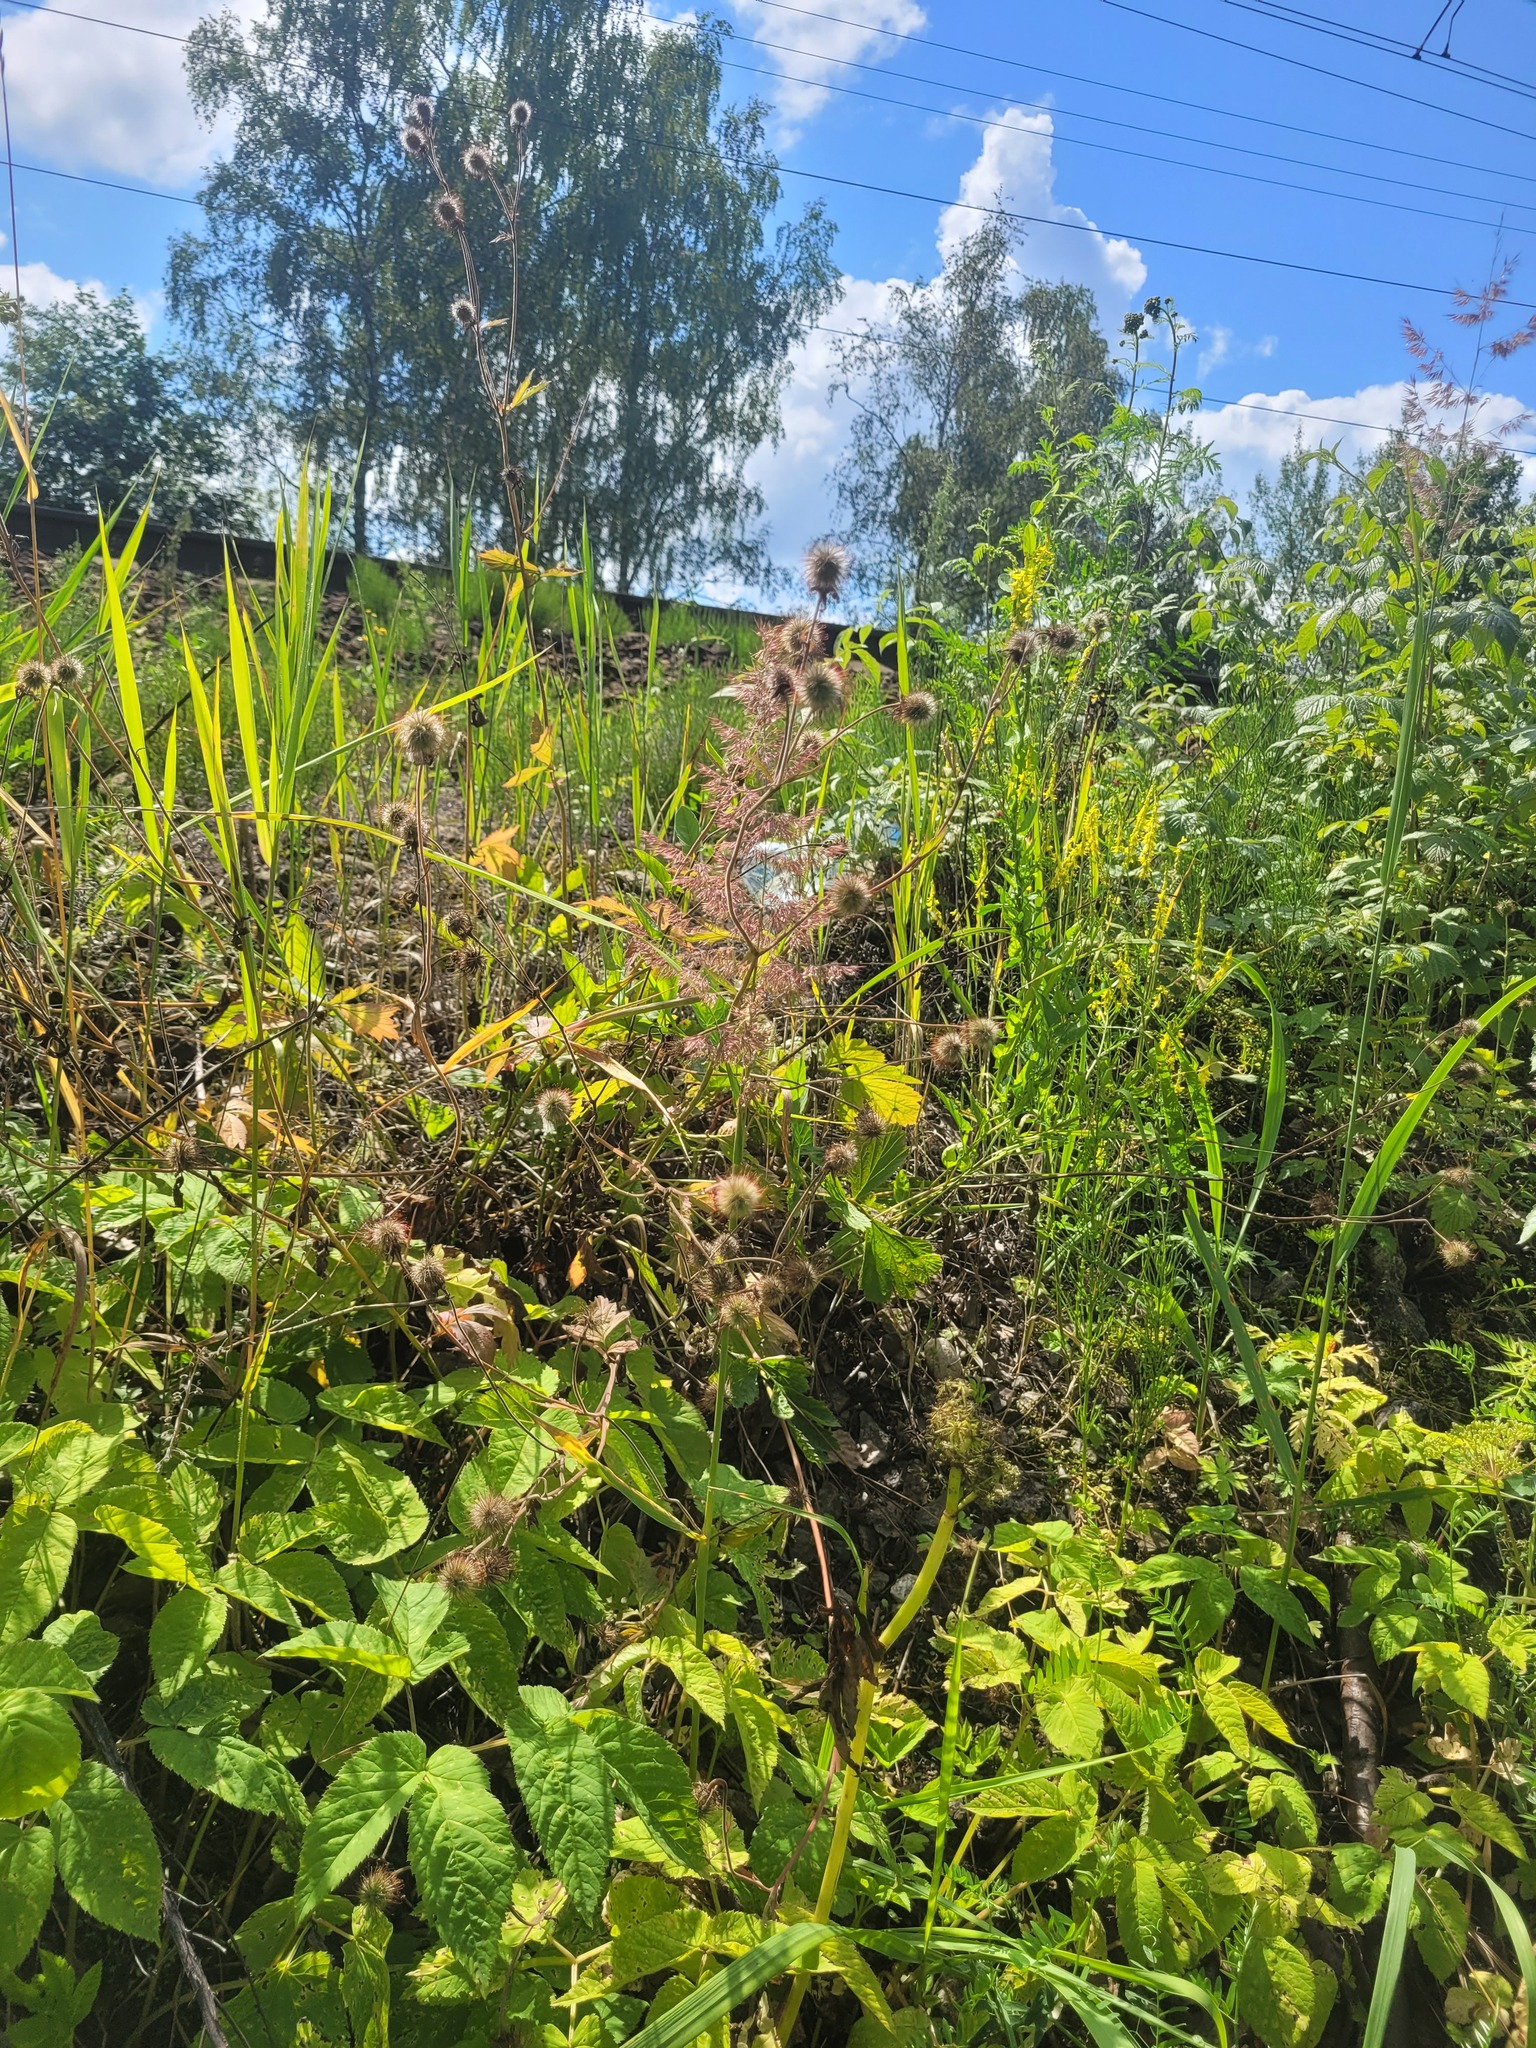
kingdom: Plantae
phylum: Tracheophyta
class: Magnoliopsida
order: Rosales
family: Rosaceae
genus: Geum
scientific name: Geum rivale
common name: Water avens
